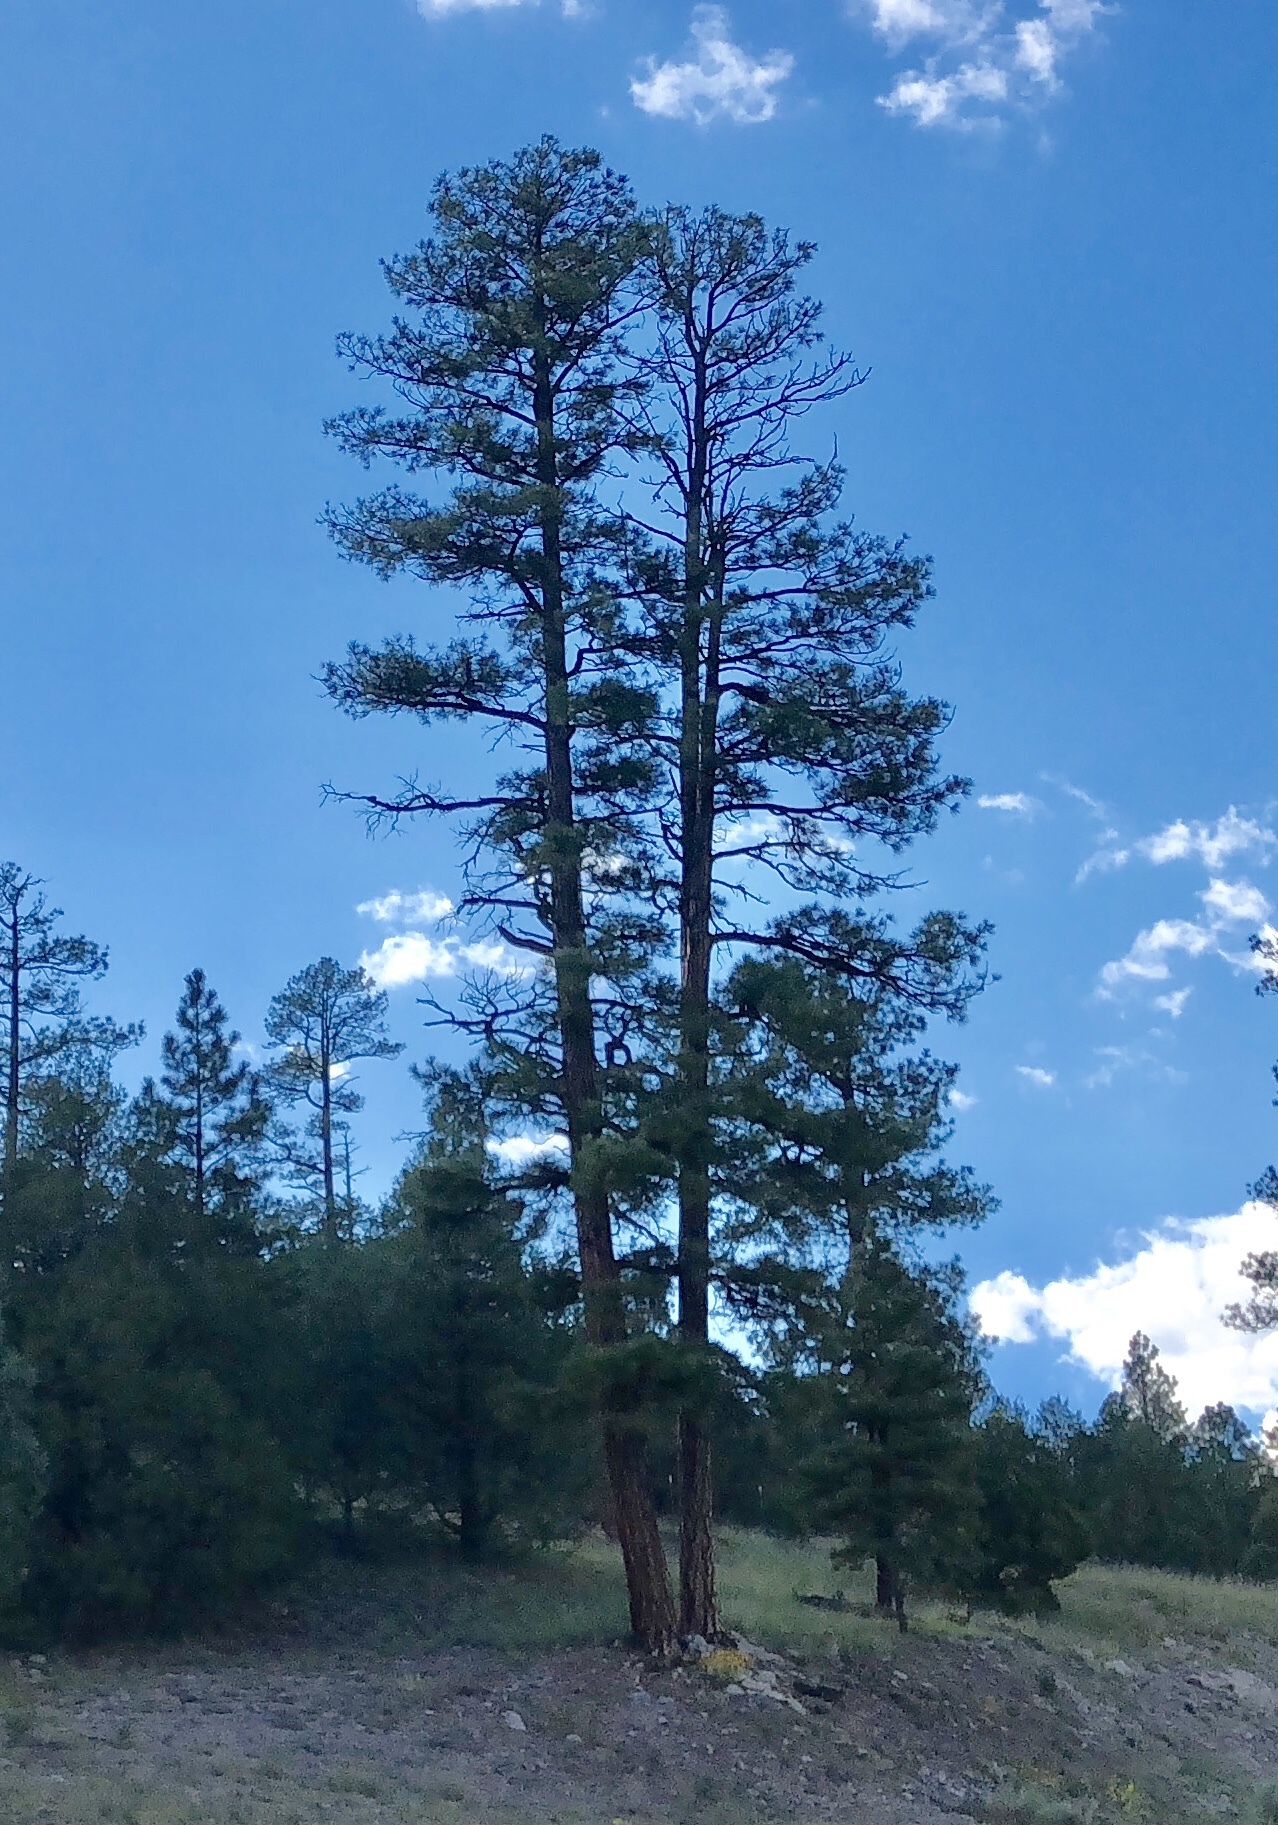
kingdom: Plantae
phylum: Tracheophyta
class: Pinopsida
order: Pinales
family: Pinaceae
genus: Pinus
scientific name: Pinus ponderosa
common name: Western yellow-pine
